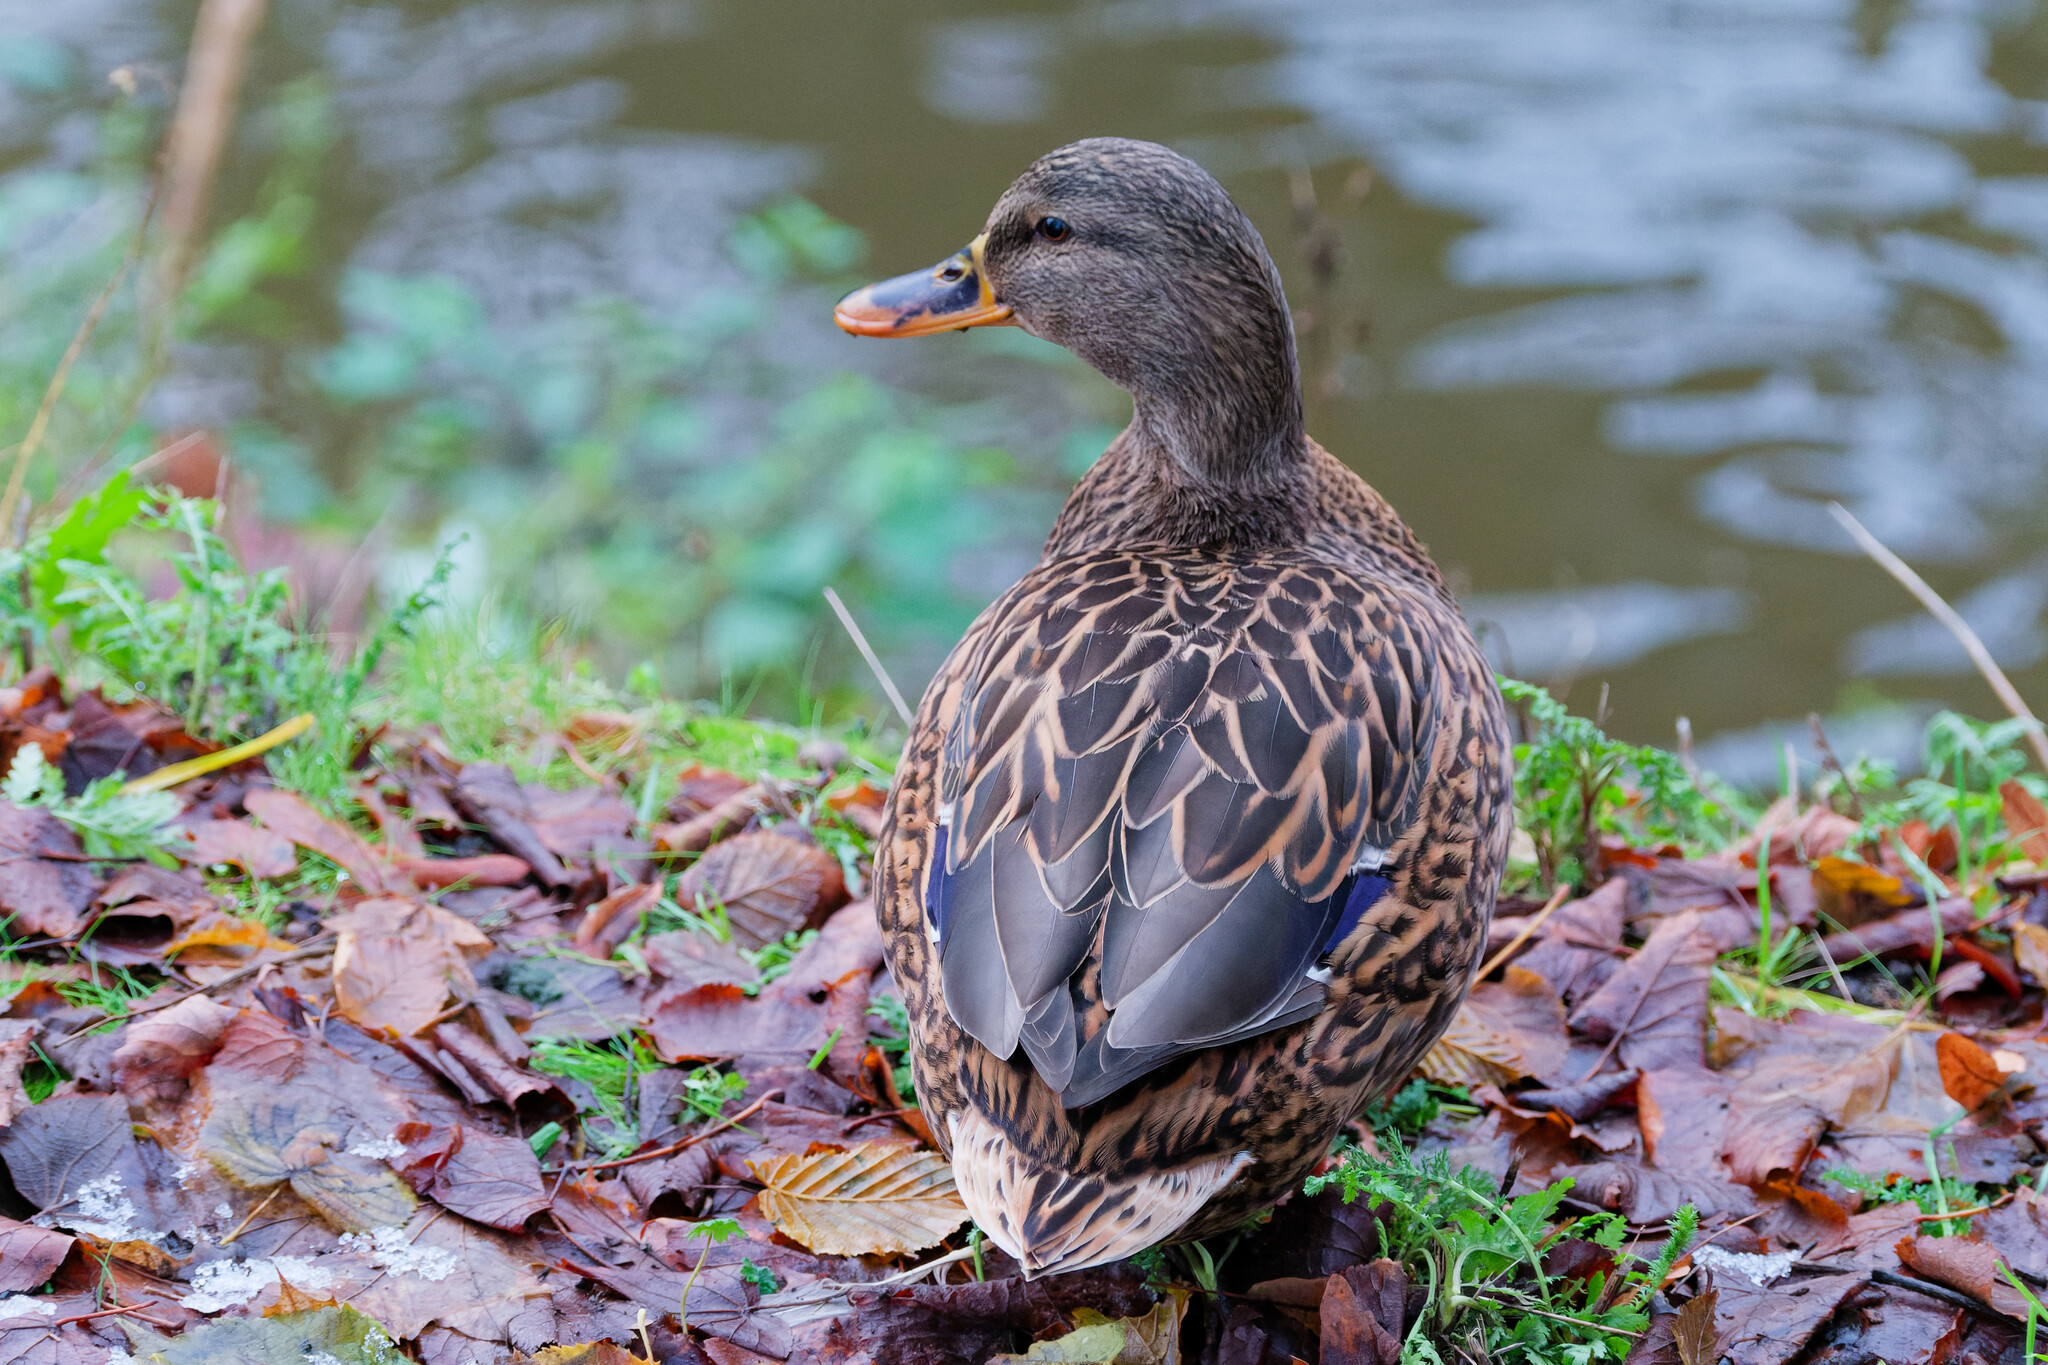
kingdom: Animalia
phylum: Chordata
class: Aves
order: Anseriformes
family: Anatidae
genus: Anas
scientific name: Anas platyrhynchos
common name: Mallard
